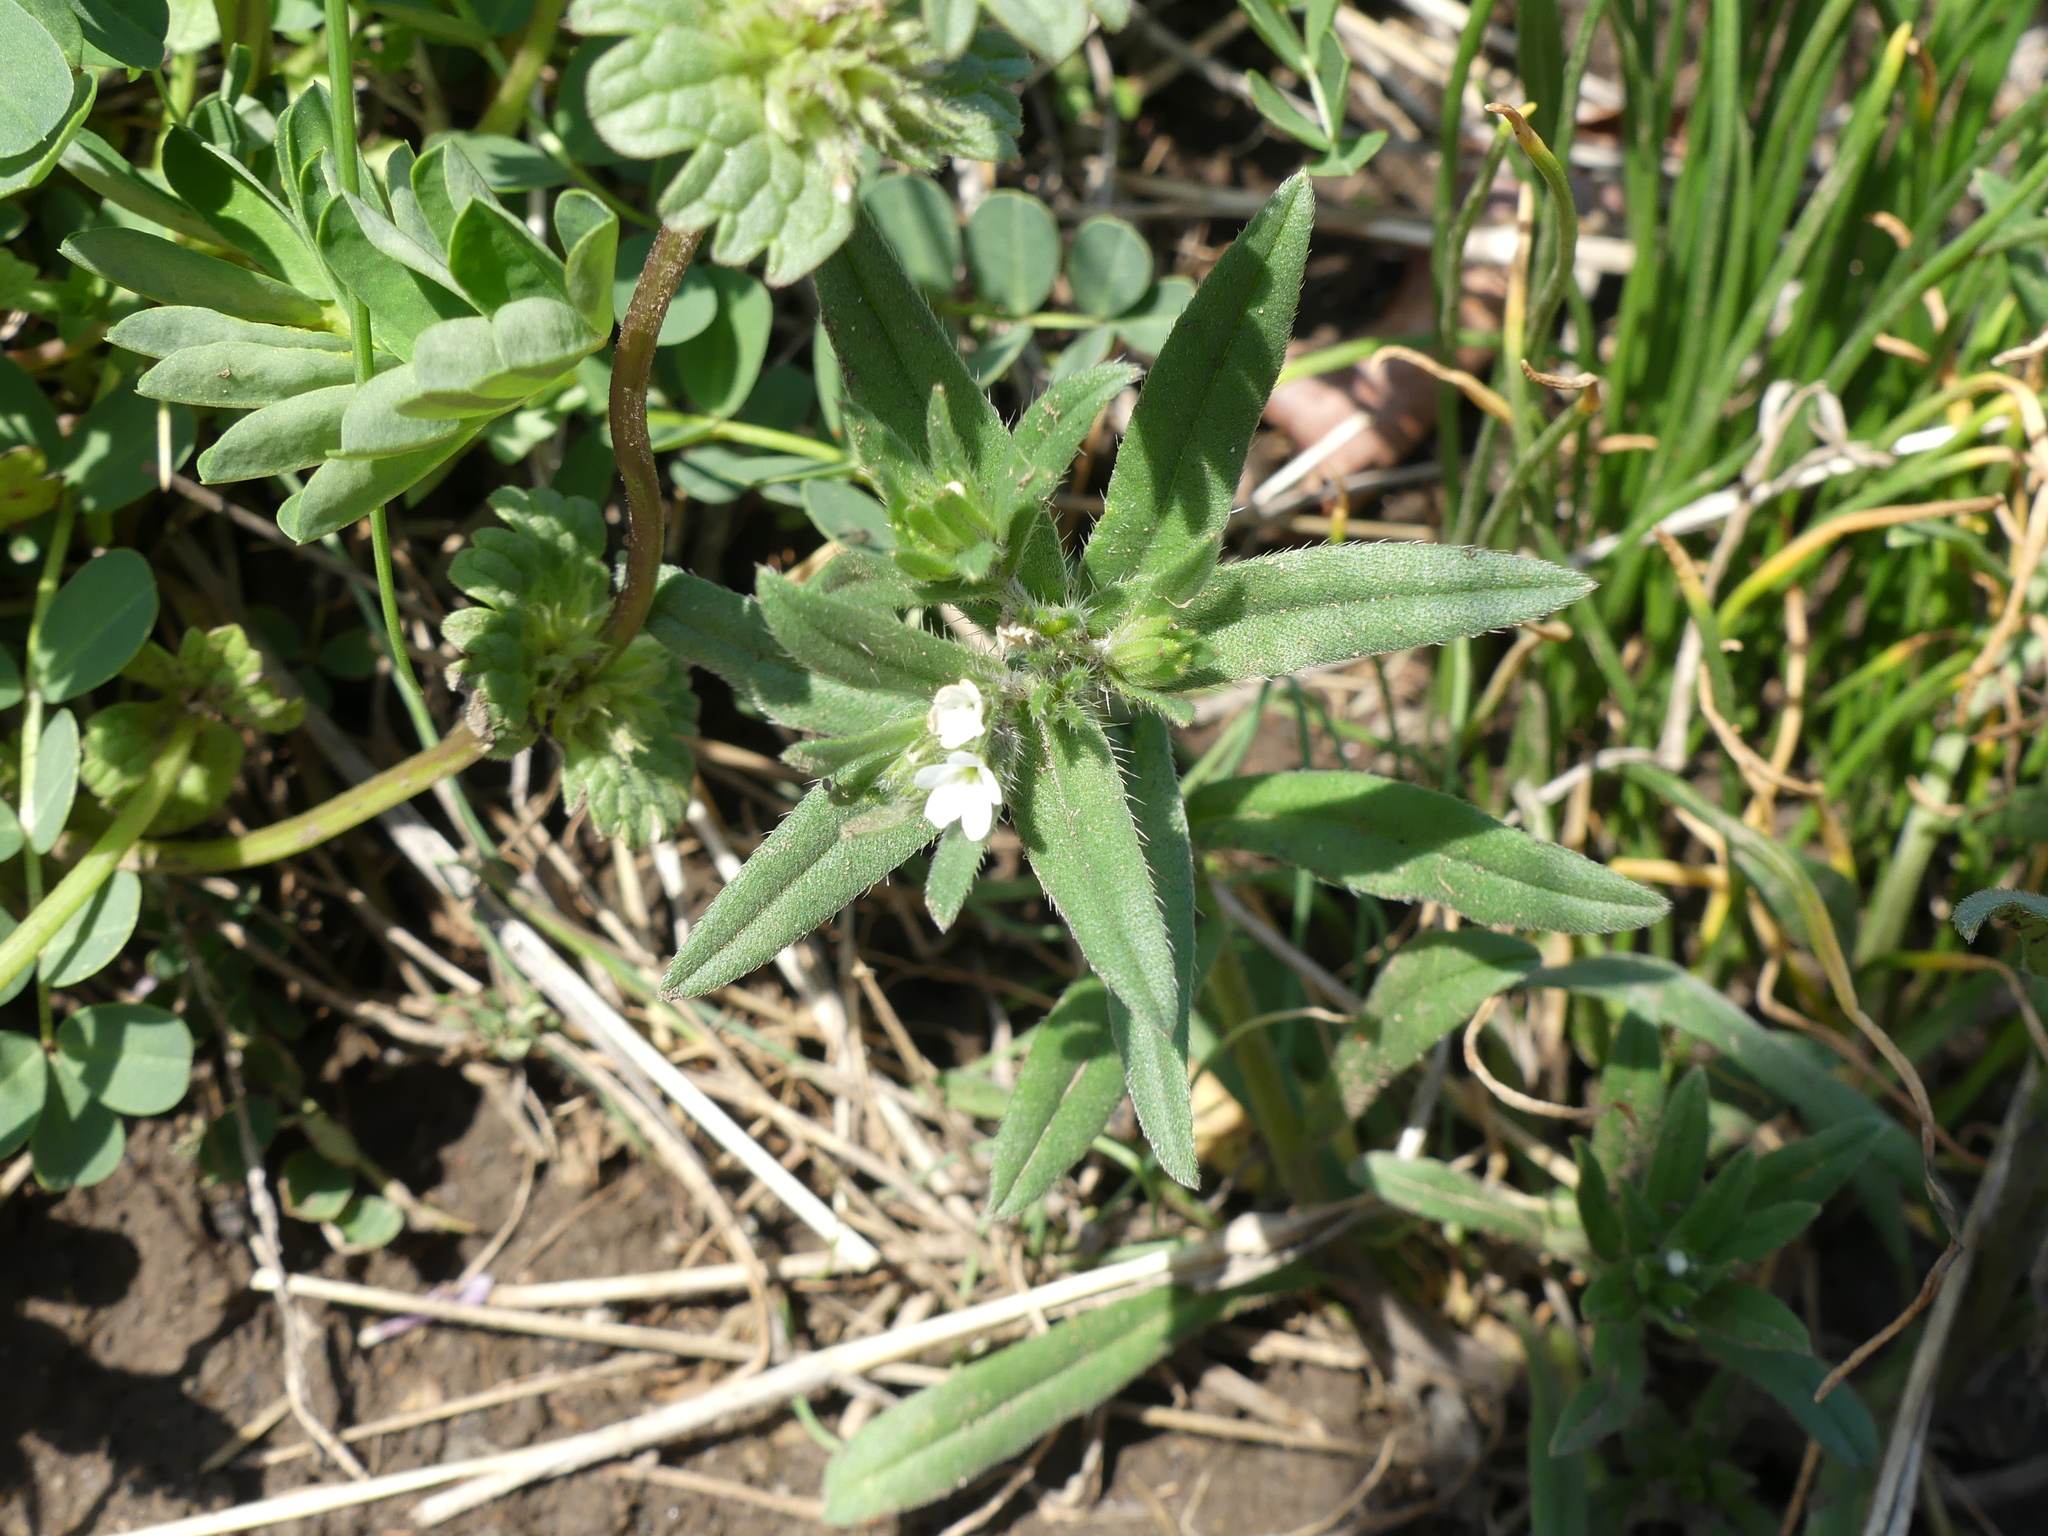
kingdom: Plantae
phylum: Tracheophyta
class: Magnoliopsida
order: Boraginales
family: Boraginaceae
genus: Buglossoides
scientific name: Buglossoides arvensis
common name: Corn gromwell
